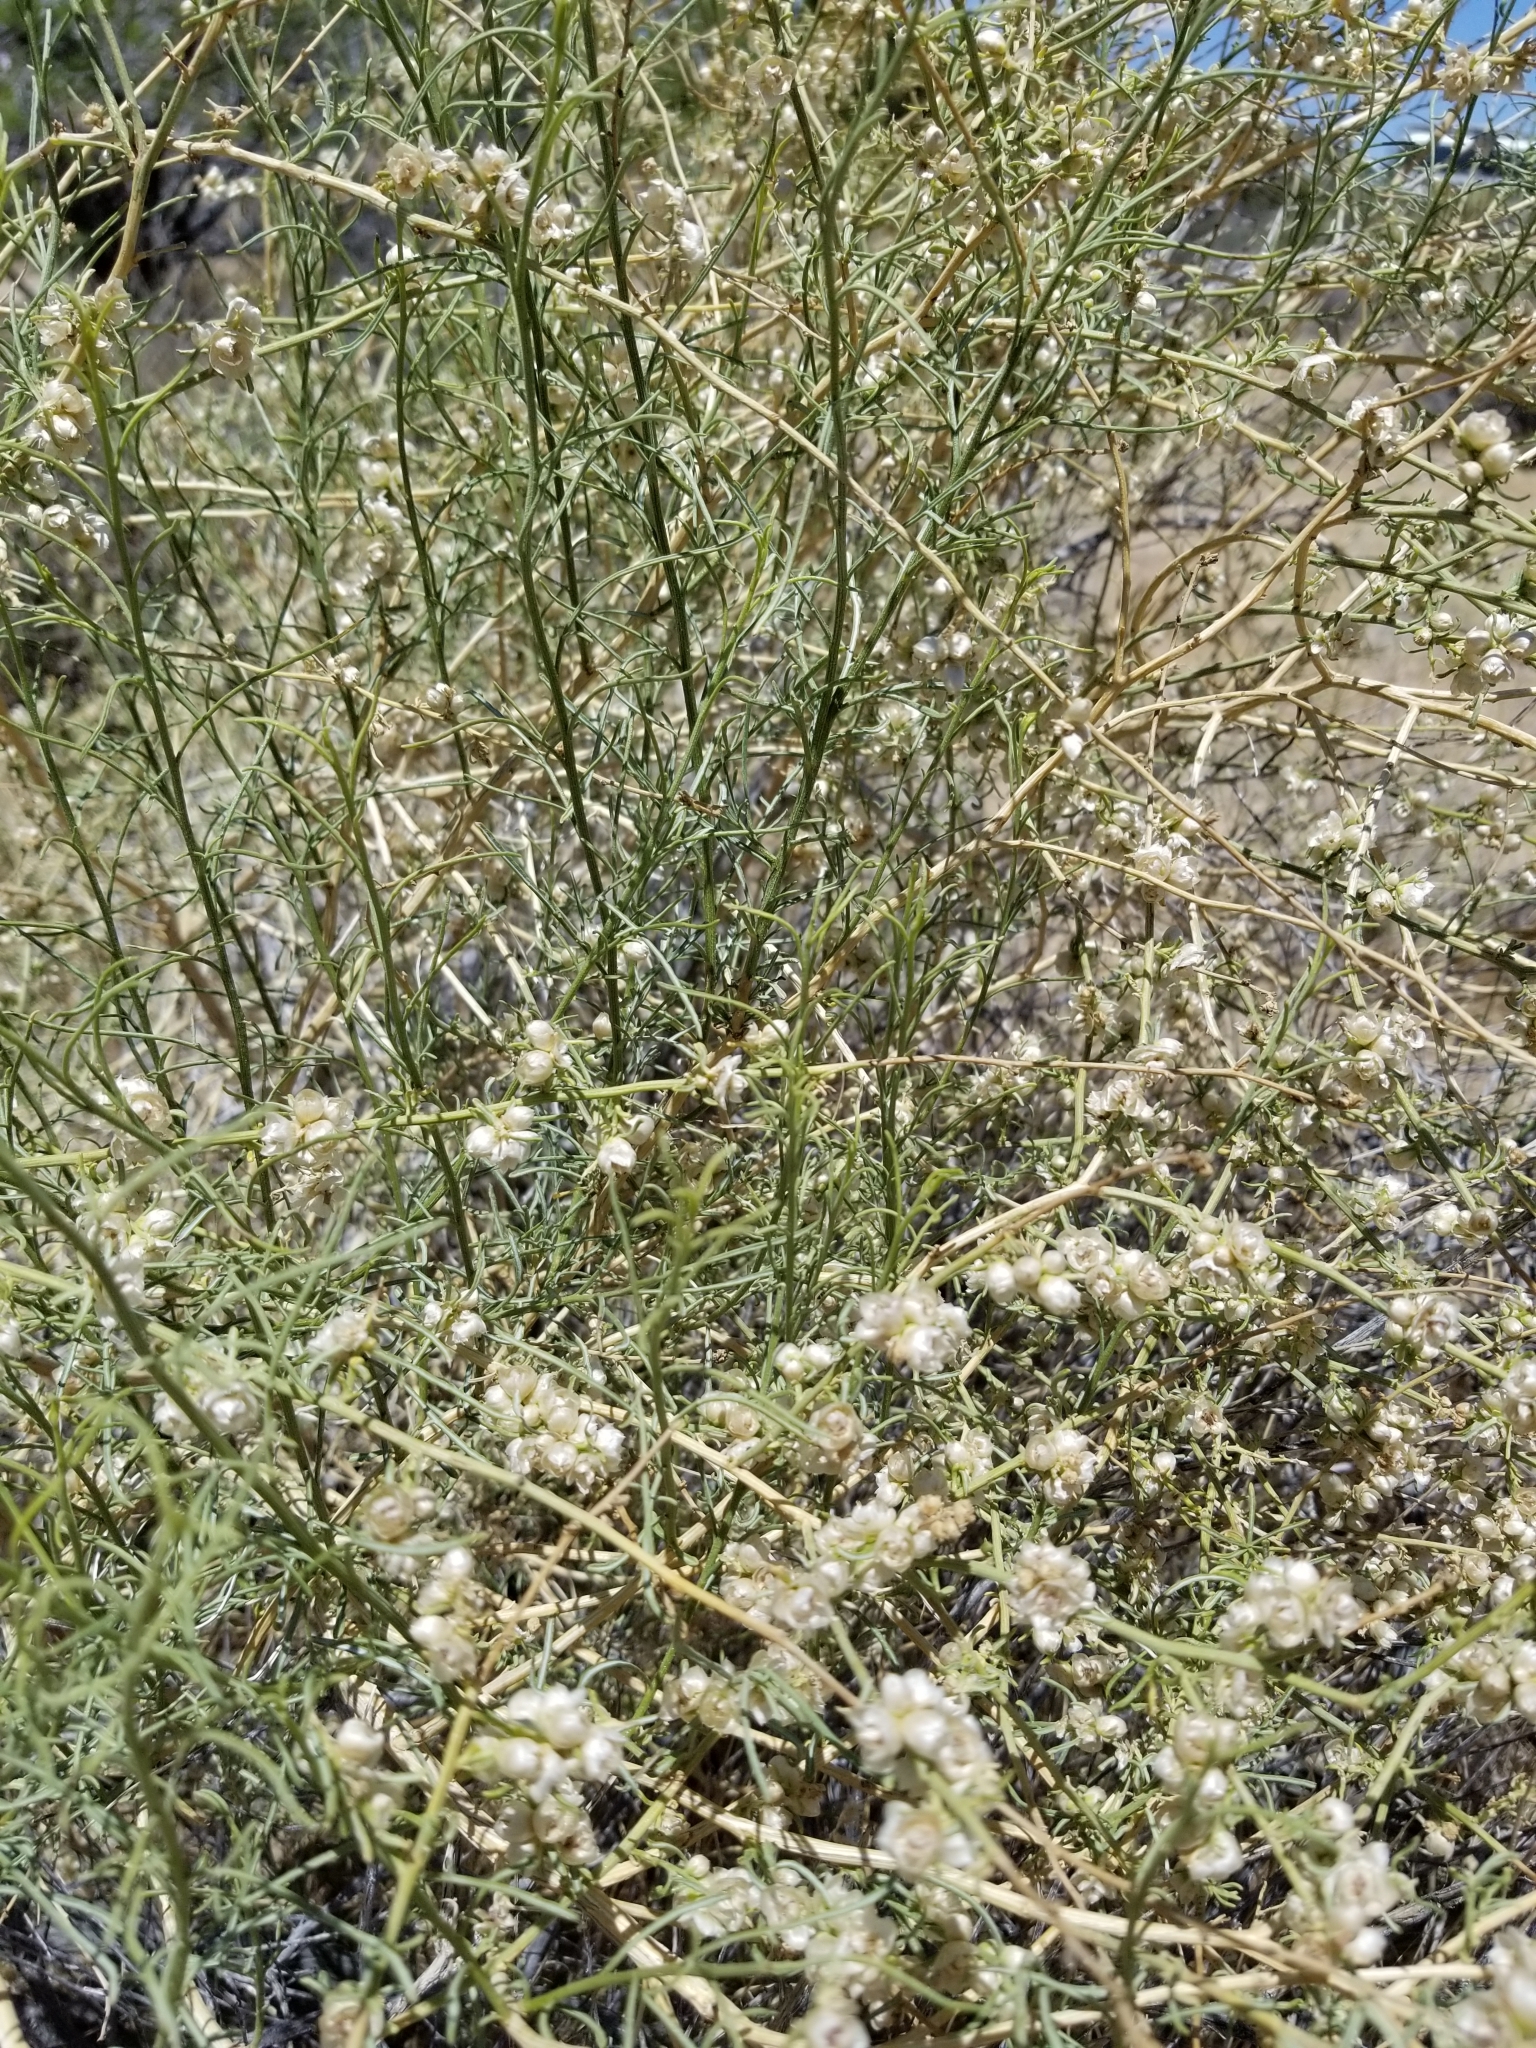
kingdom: Plantae
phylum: Tracheophyta
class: Magnoliopsida
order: Asterales
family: Asteraceae
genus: Ambrosia
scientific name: Ambrosia salsola
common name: Burrobrush
